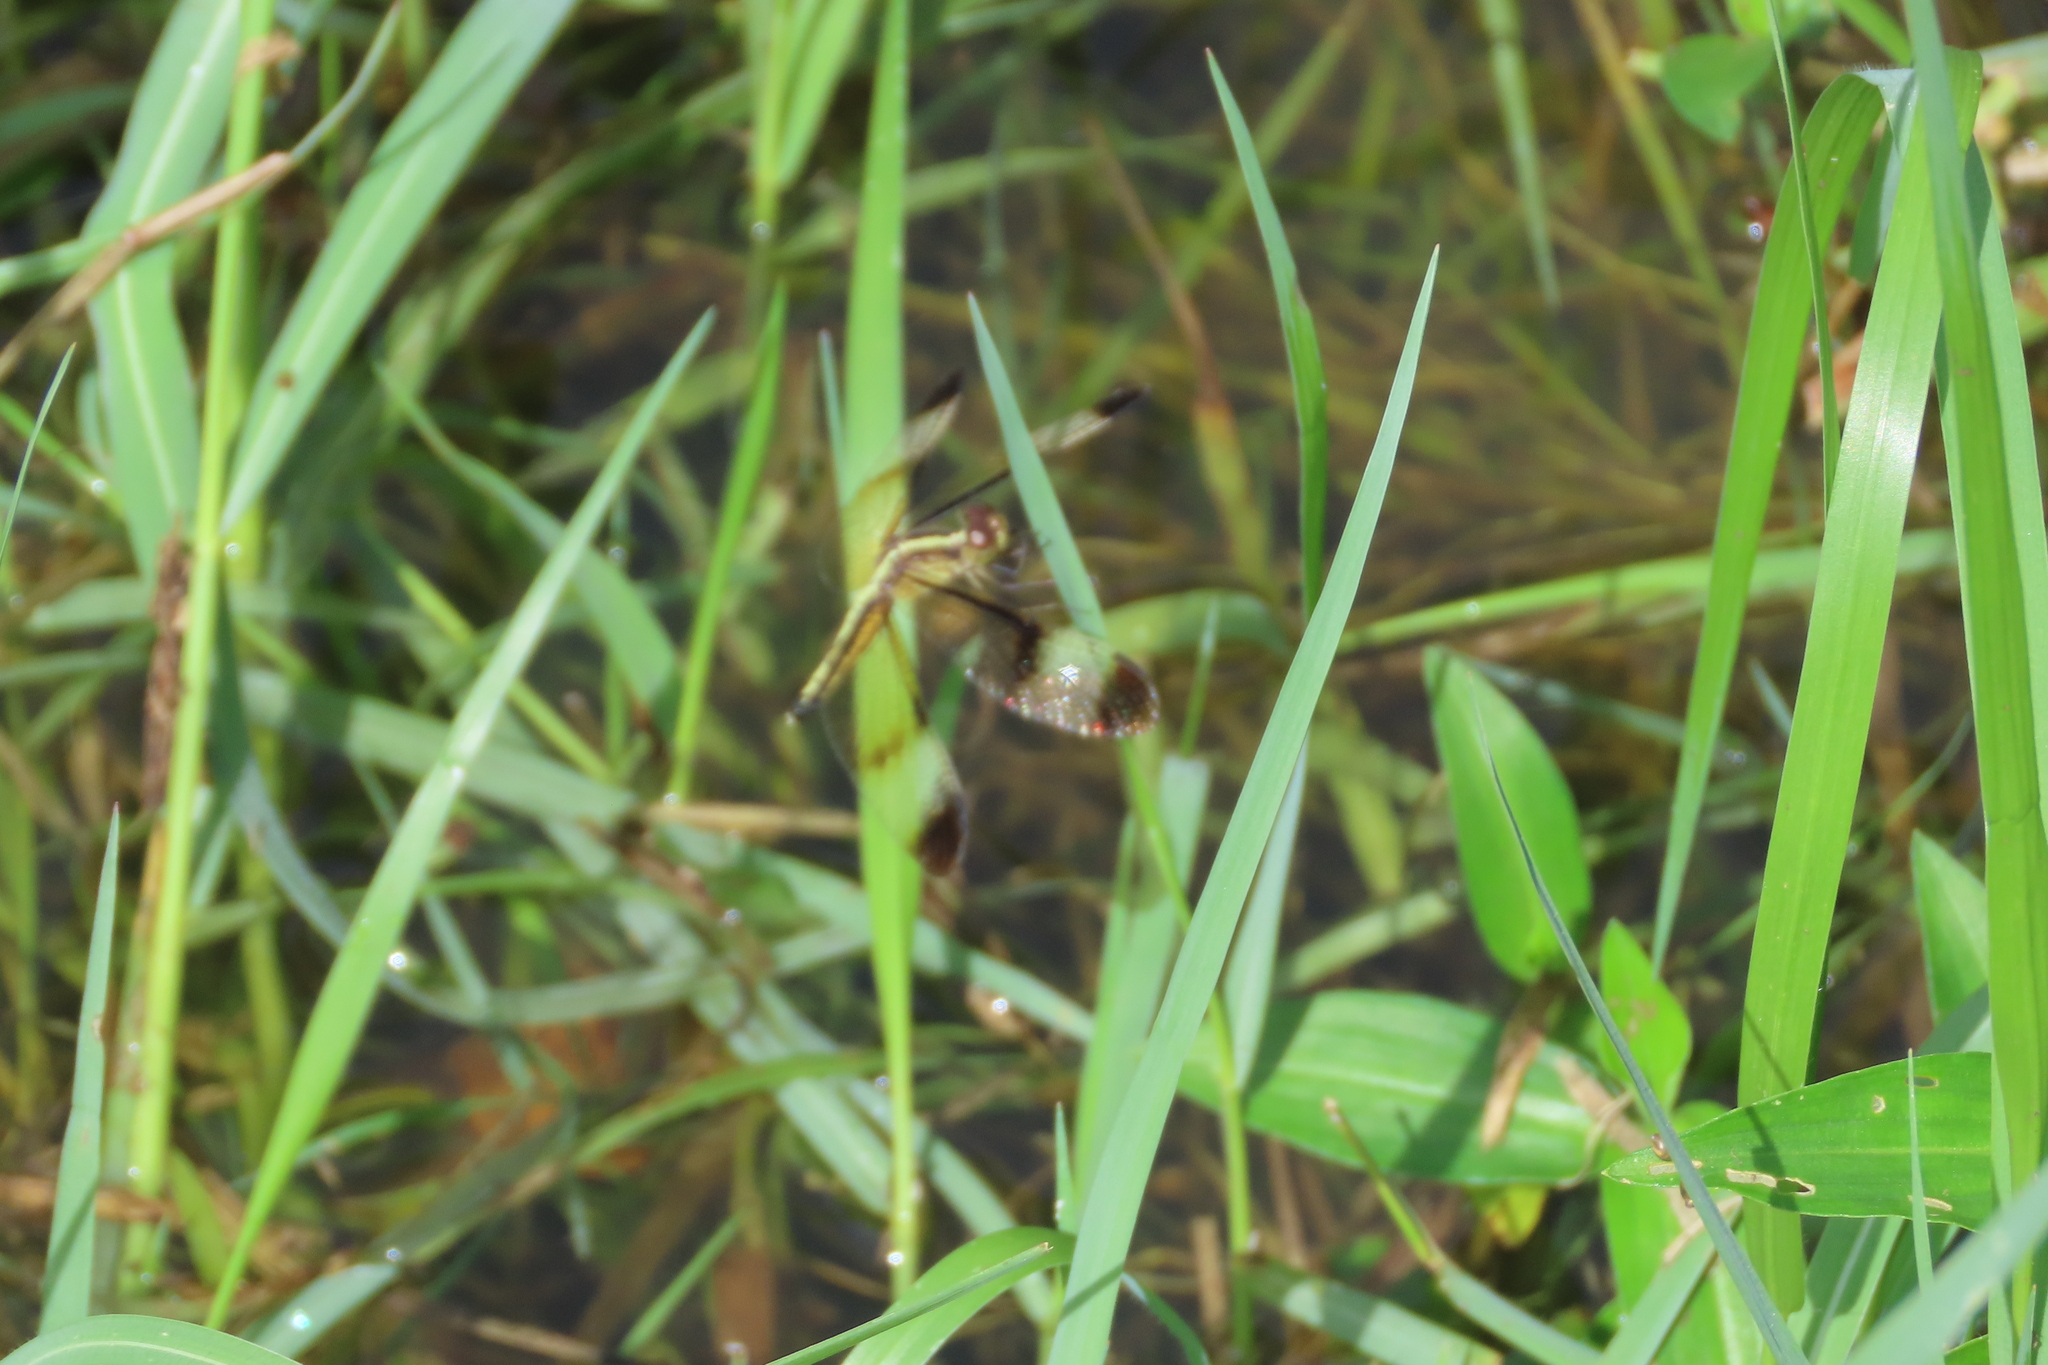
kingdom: Animalia
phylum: Arthropoda
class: Insecta
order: Odonata
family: Libellulidae
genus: Neurothemis
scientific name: Neurothemis tullia
